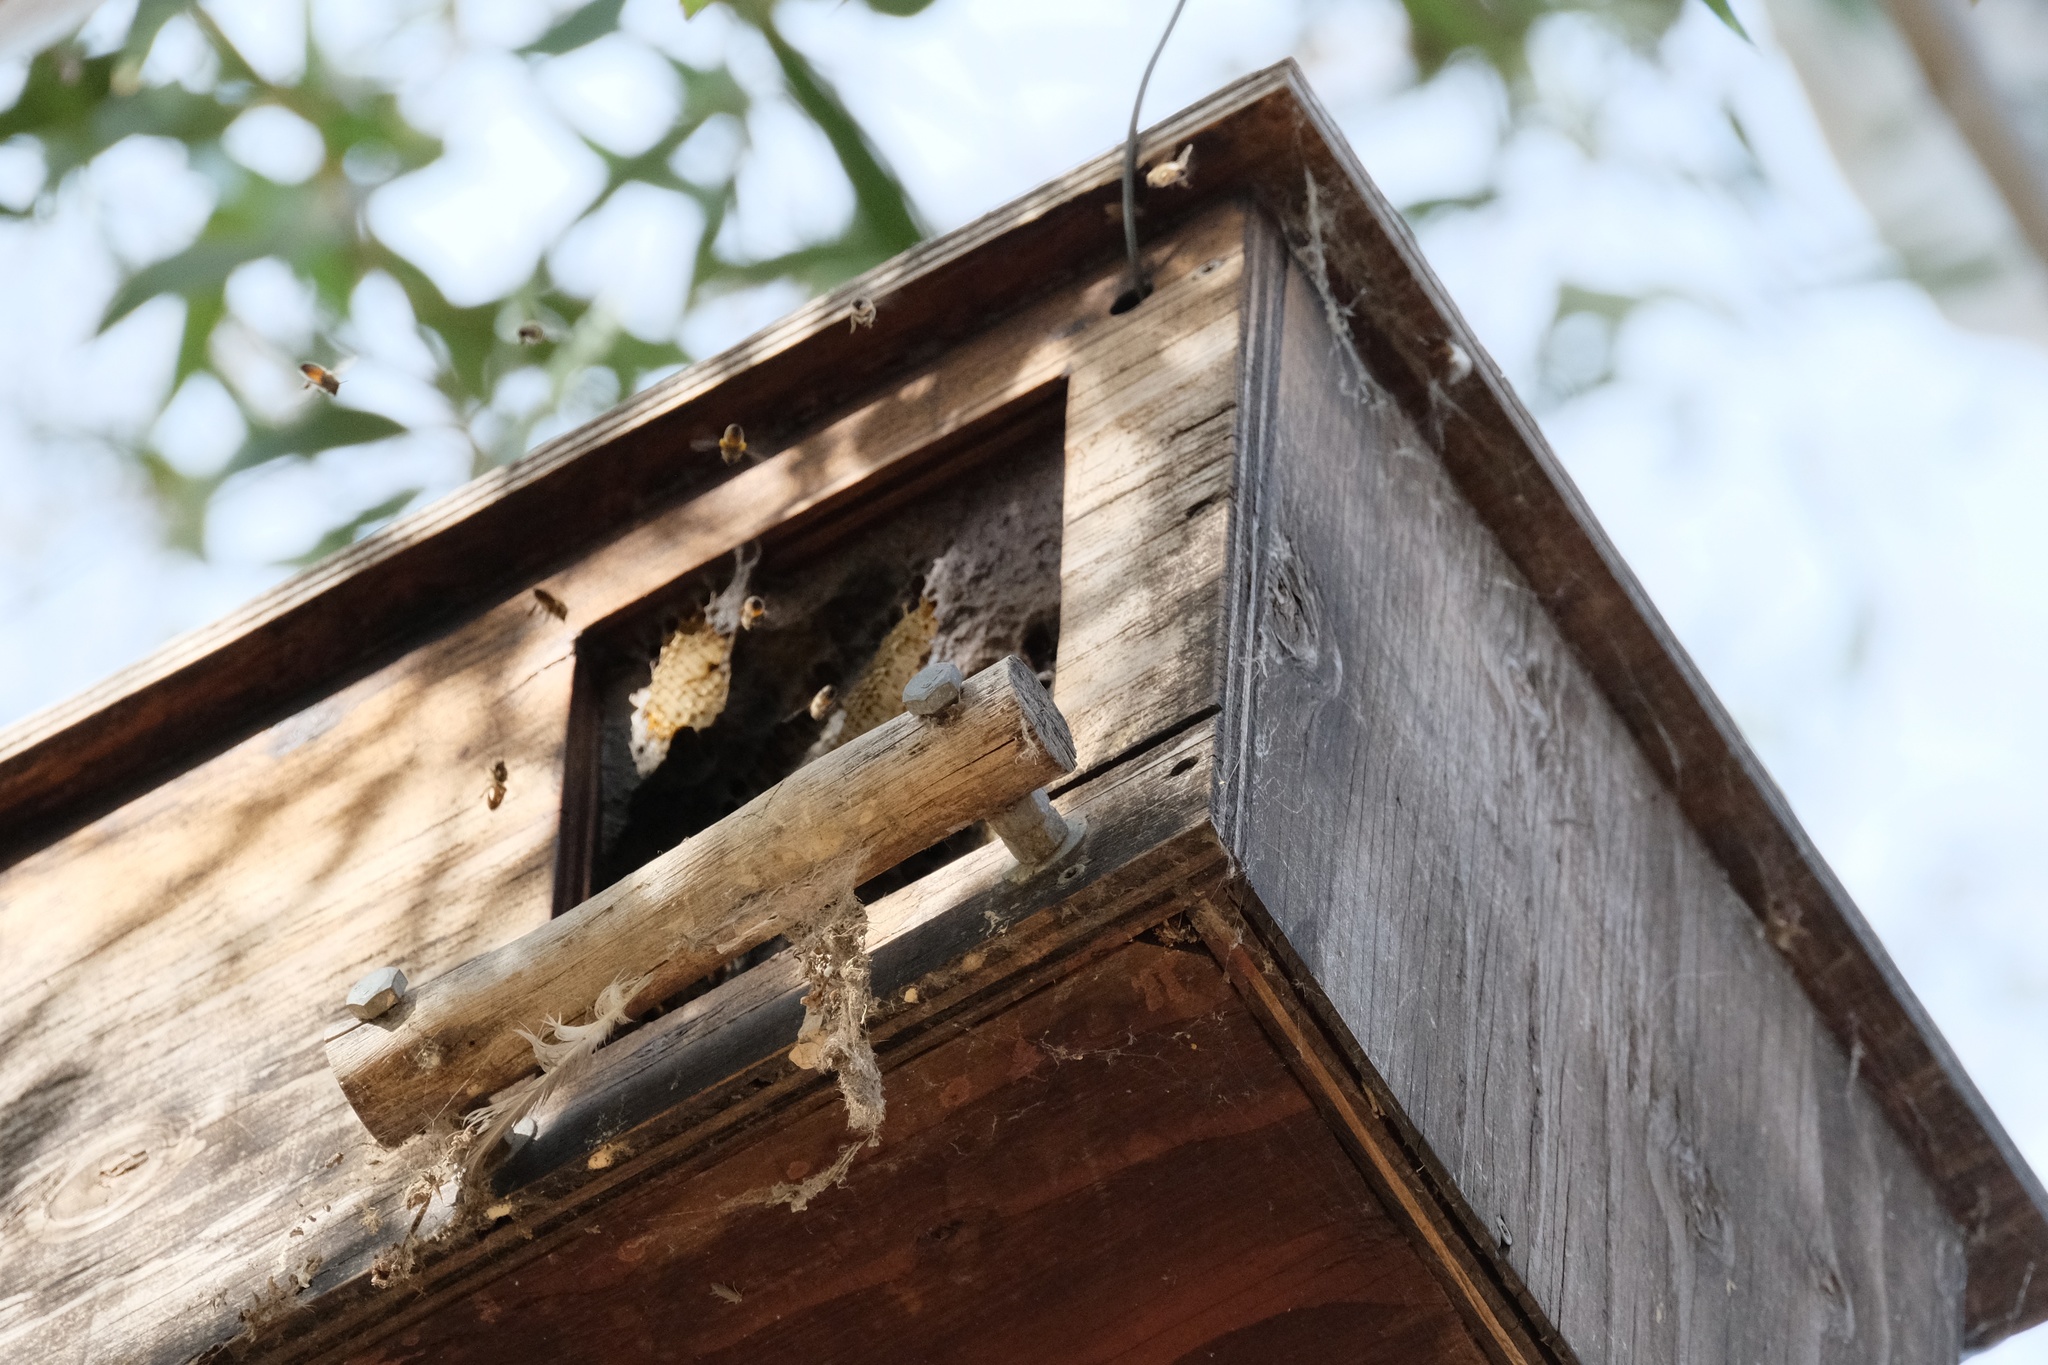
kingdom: Animalia
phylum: Arthropoda
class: Insecta
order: Hymenoptera
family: Apidae
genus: Apis
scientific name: Apis mellifera
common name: Honey bee
